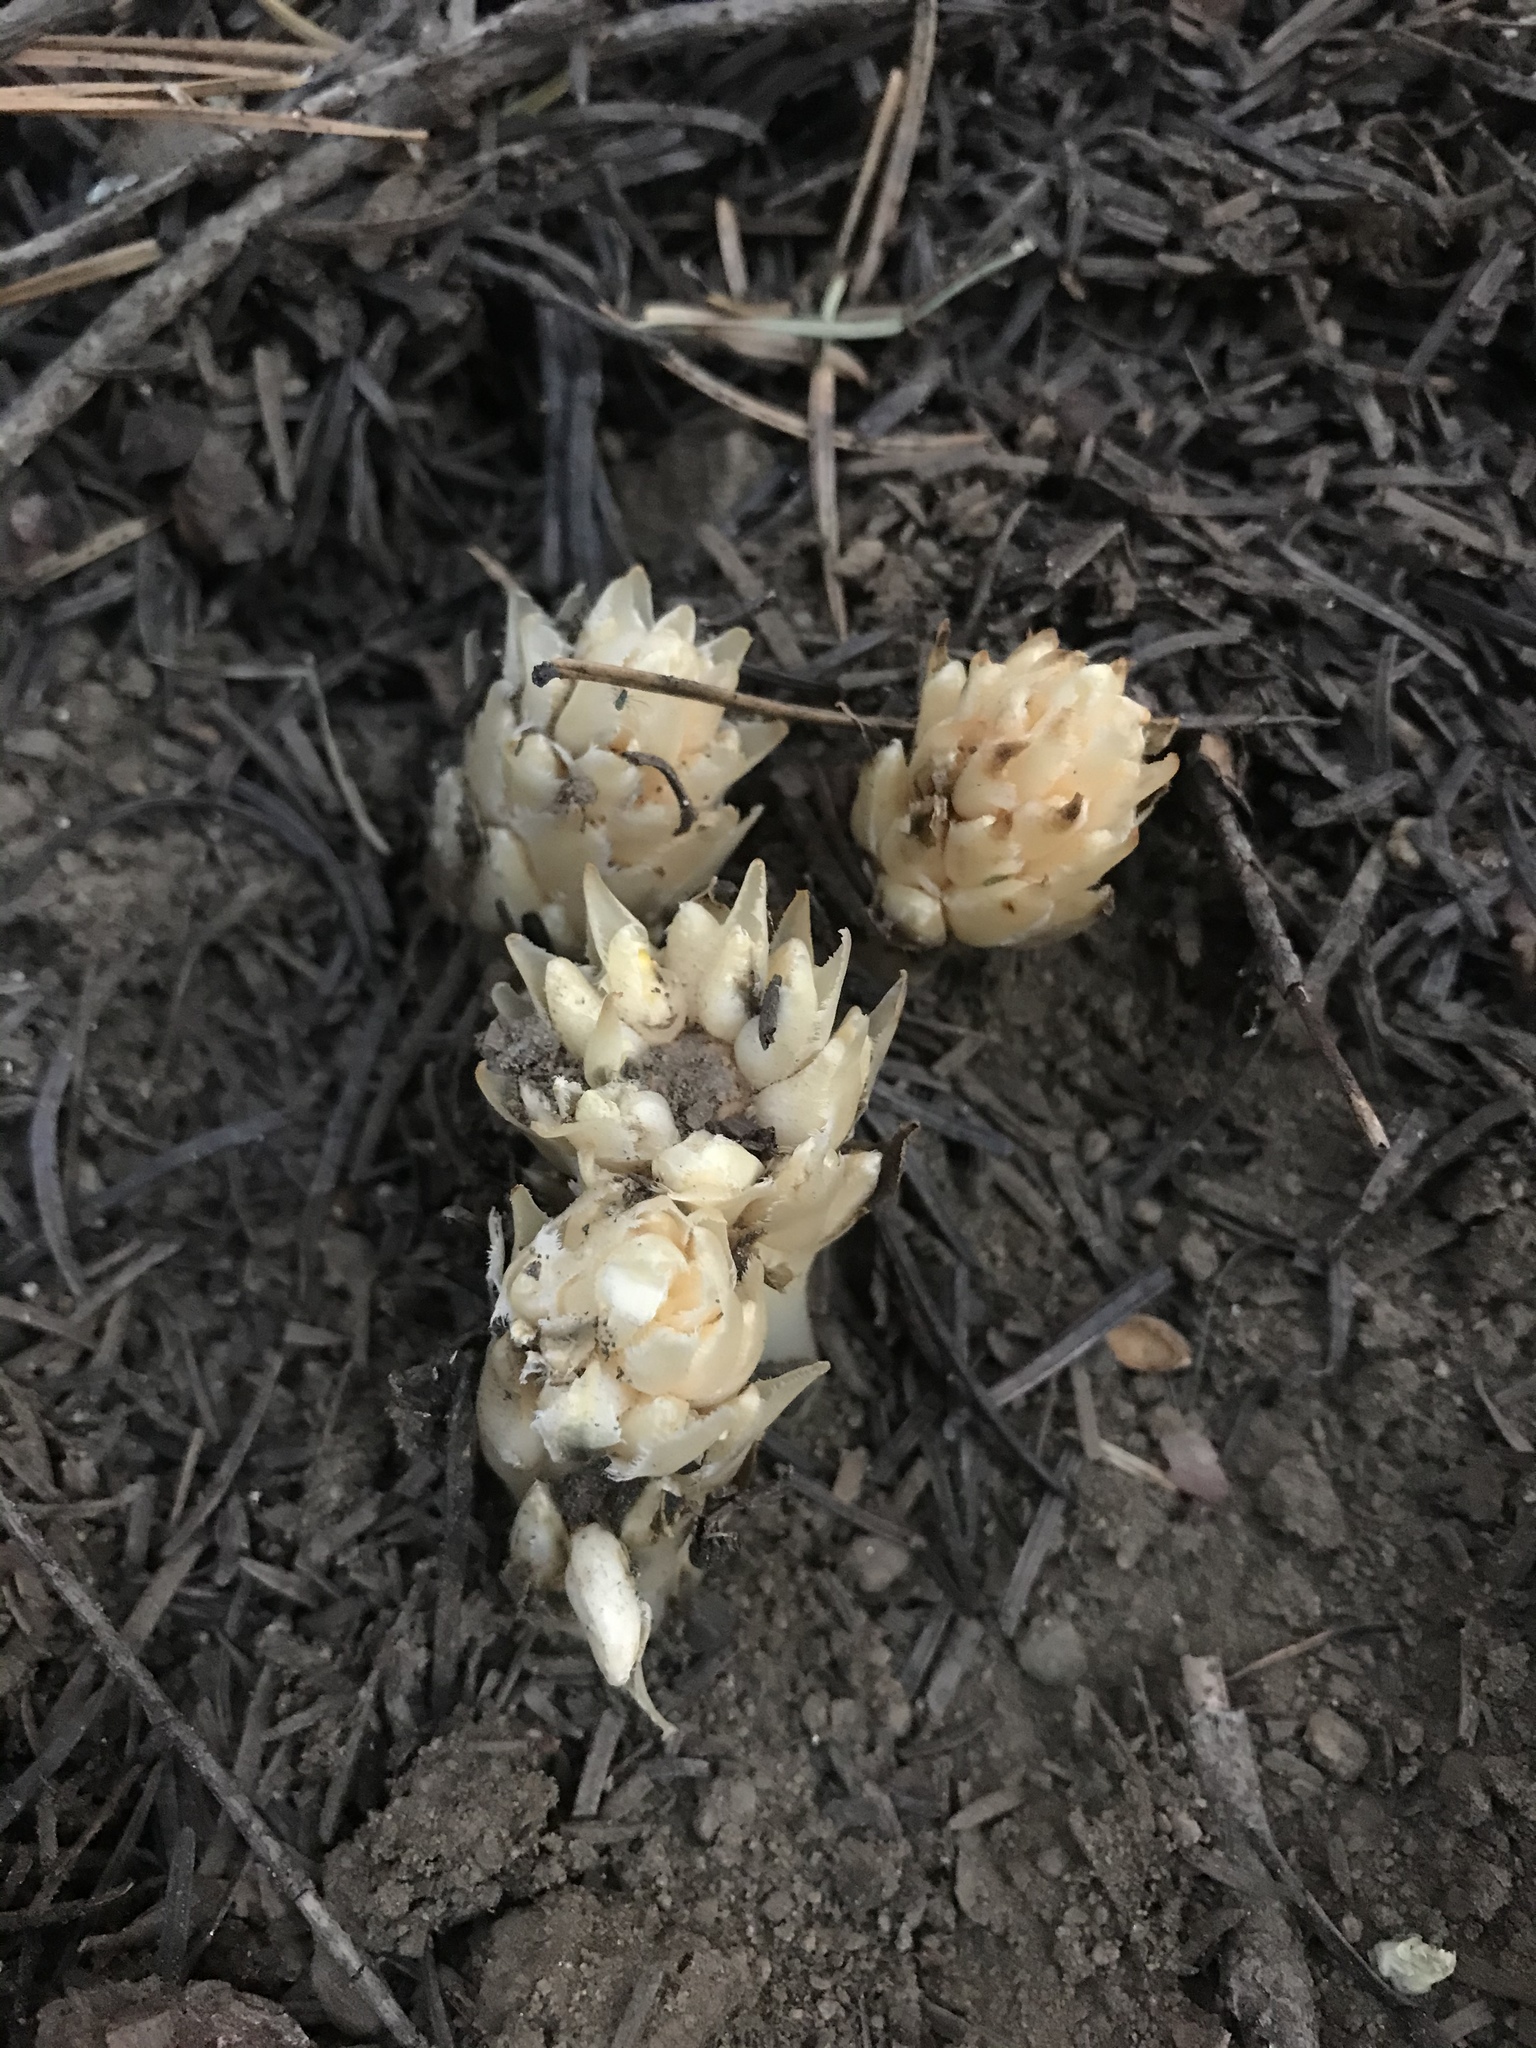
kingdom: Plantae
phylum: Tracheophyta
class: Magnoliopsida
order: Ericales
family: Ericaceae
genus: Pleuricospora
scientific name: Pleuricospora fimbriolata
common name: Fringed pinesap
